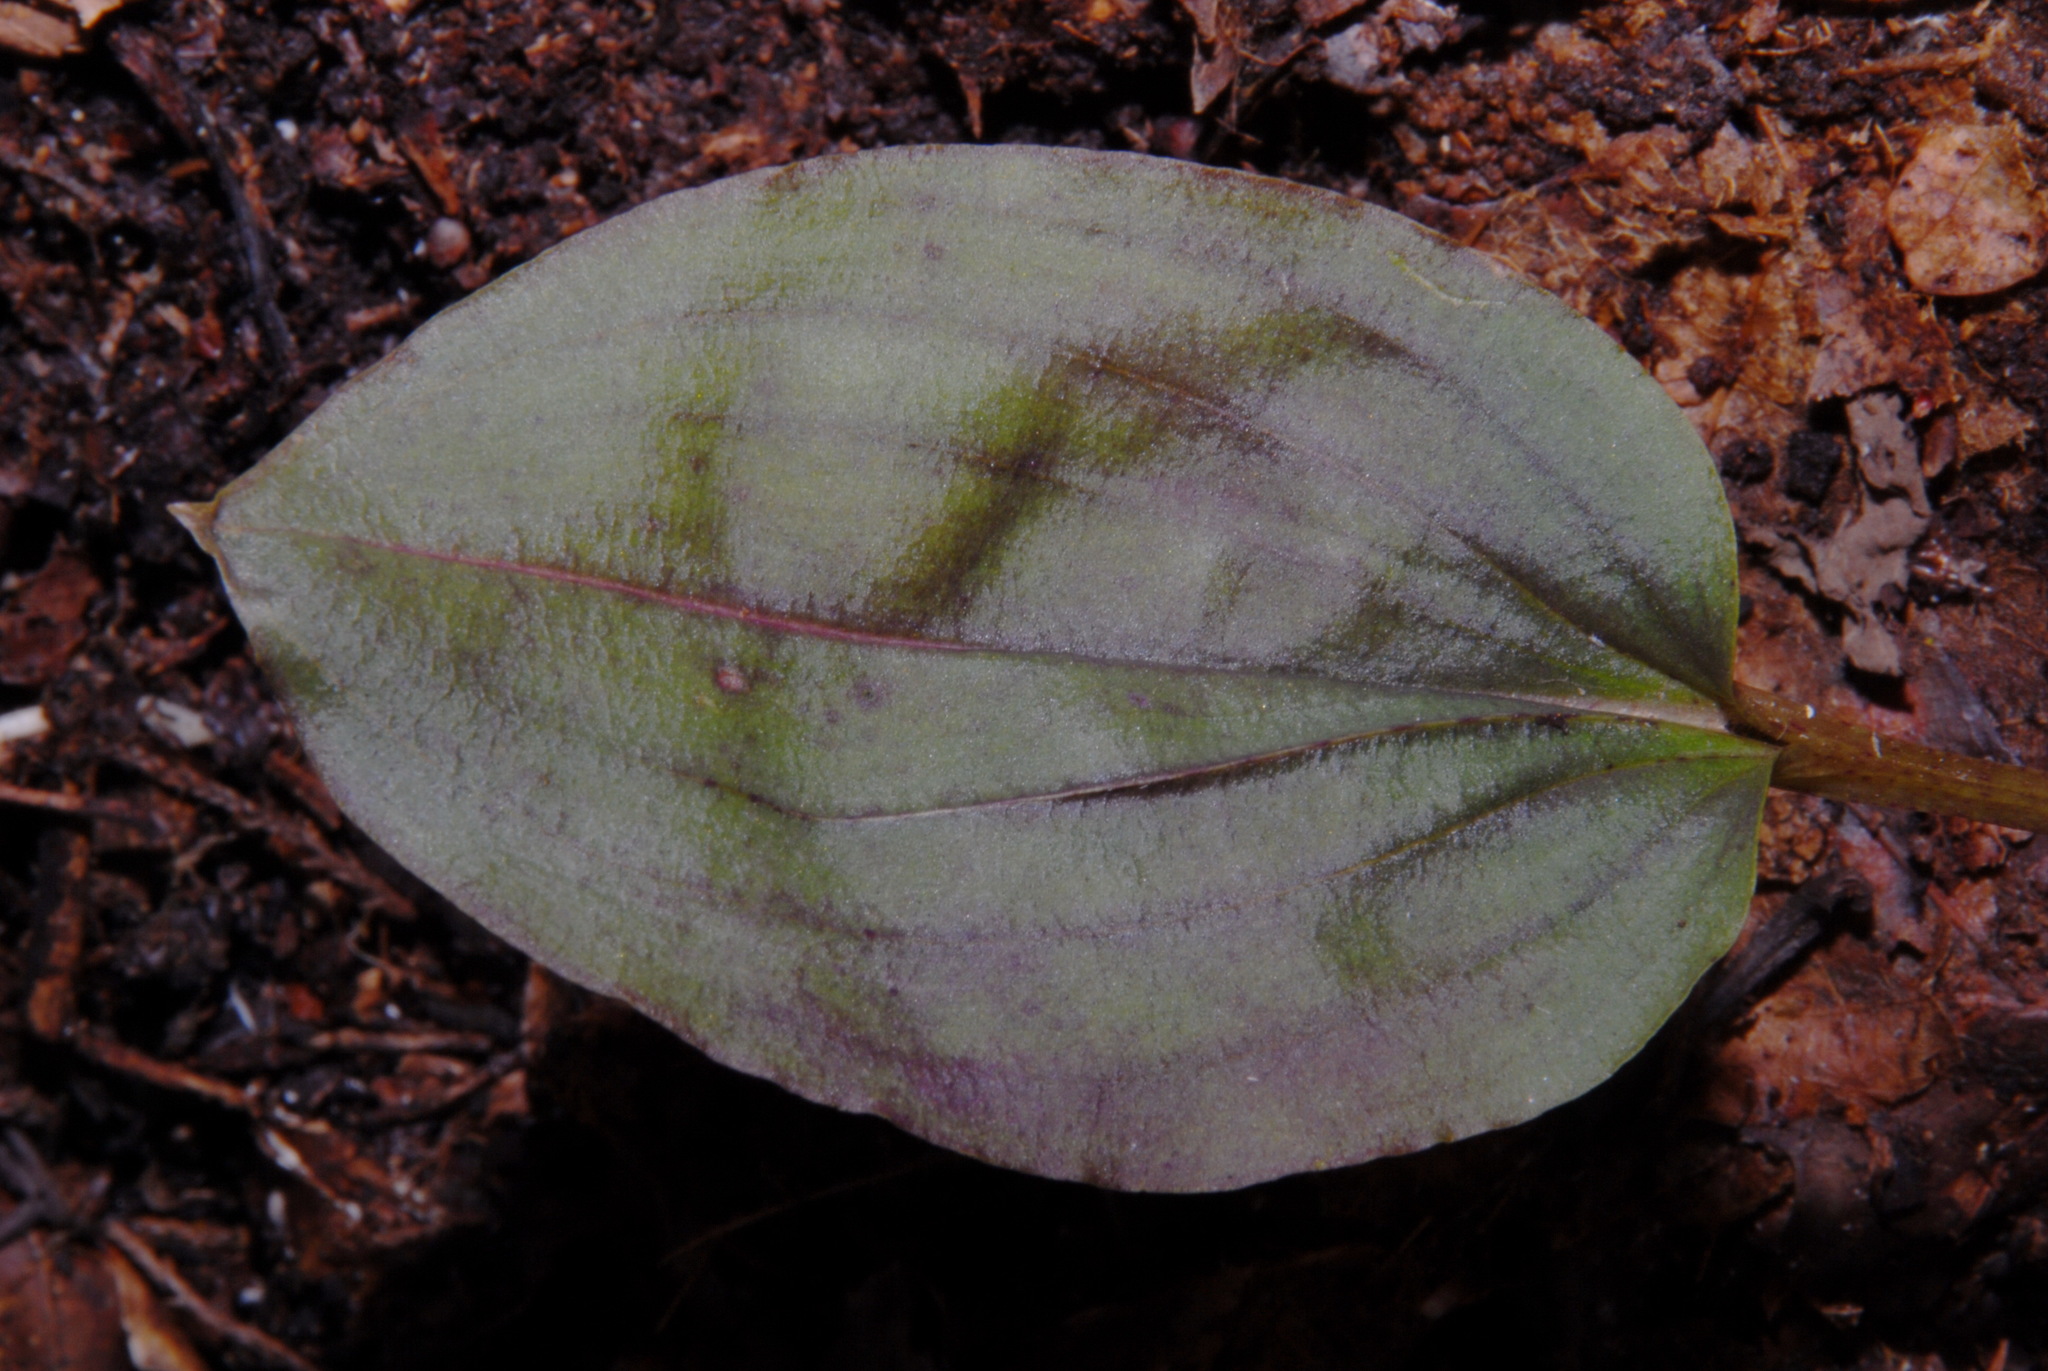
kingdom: Plantae
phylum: Tracheophyta
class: Liliopsida
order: Asparagales
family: Orchidaceae
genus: Tipularia
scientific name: Tipularia discolor
